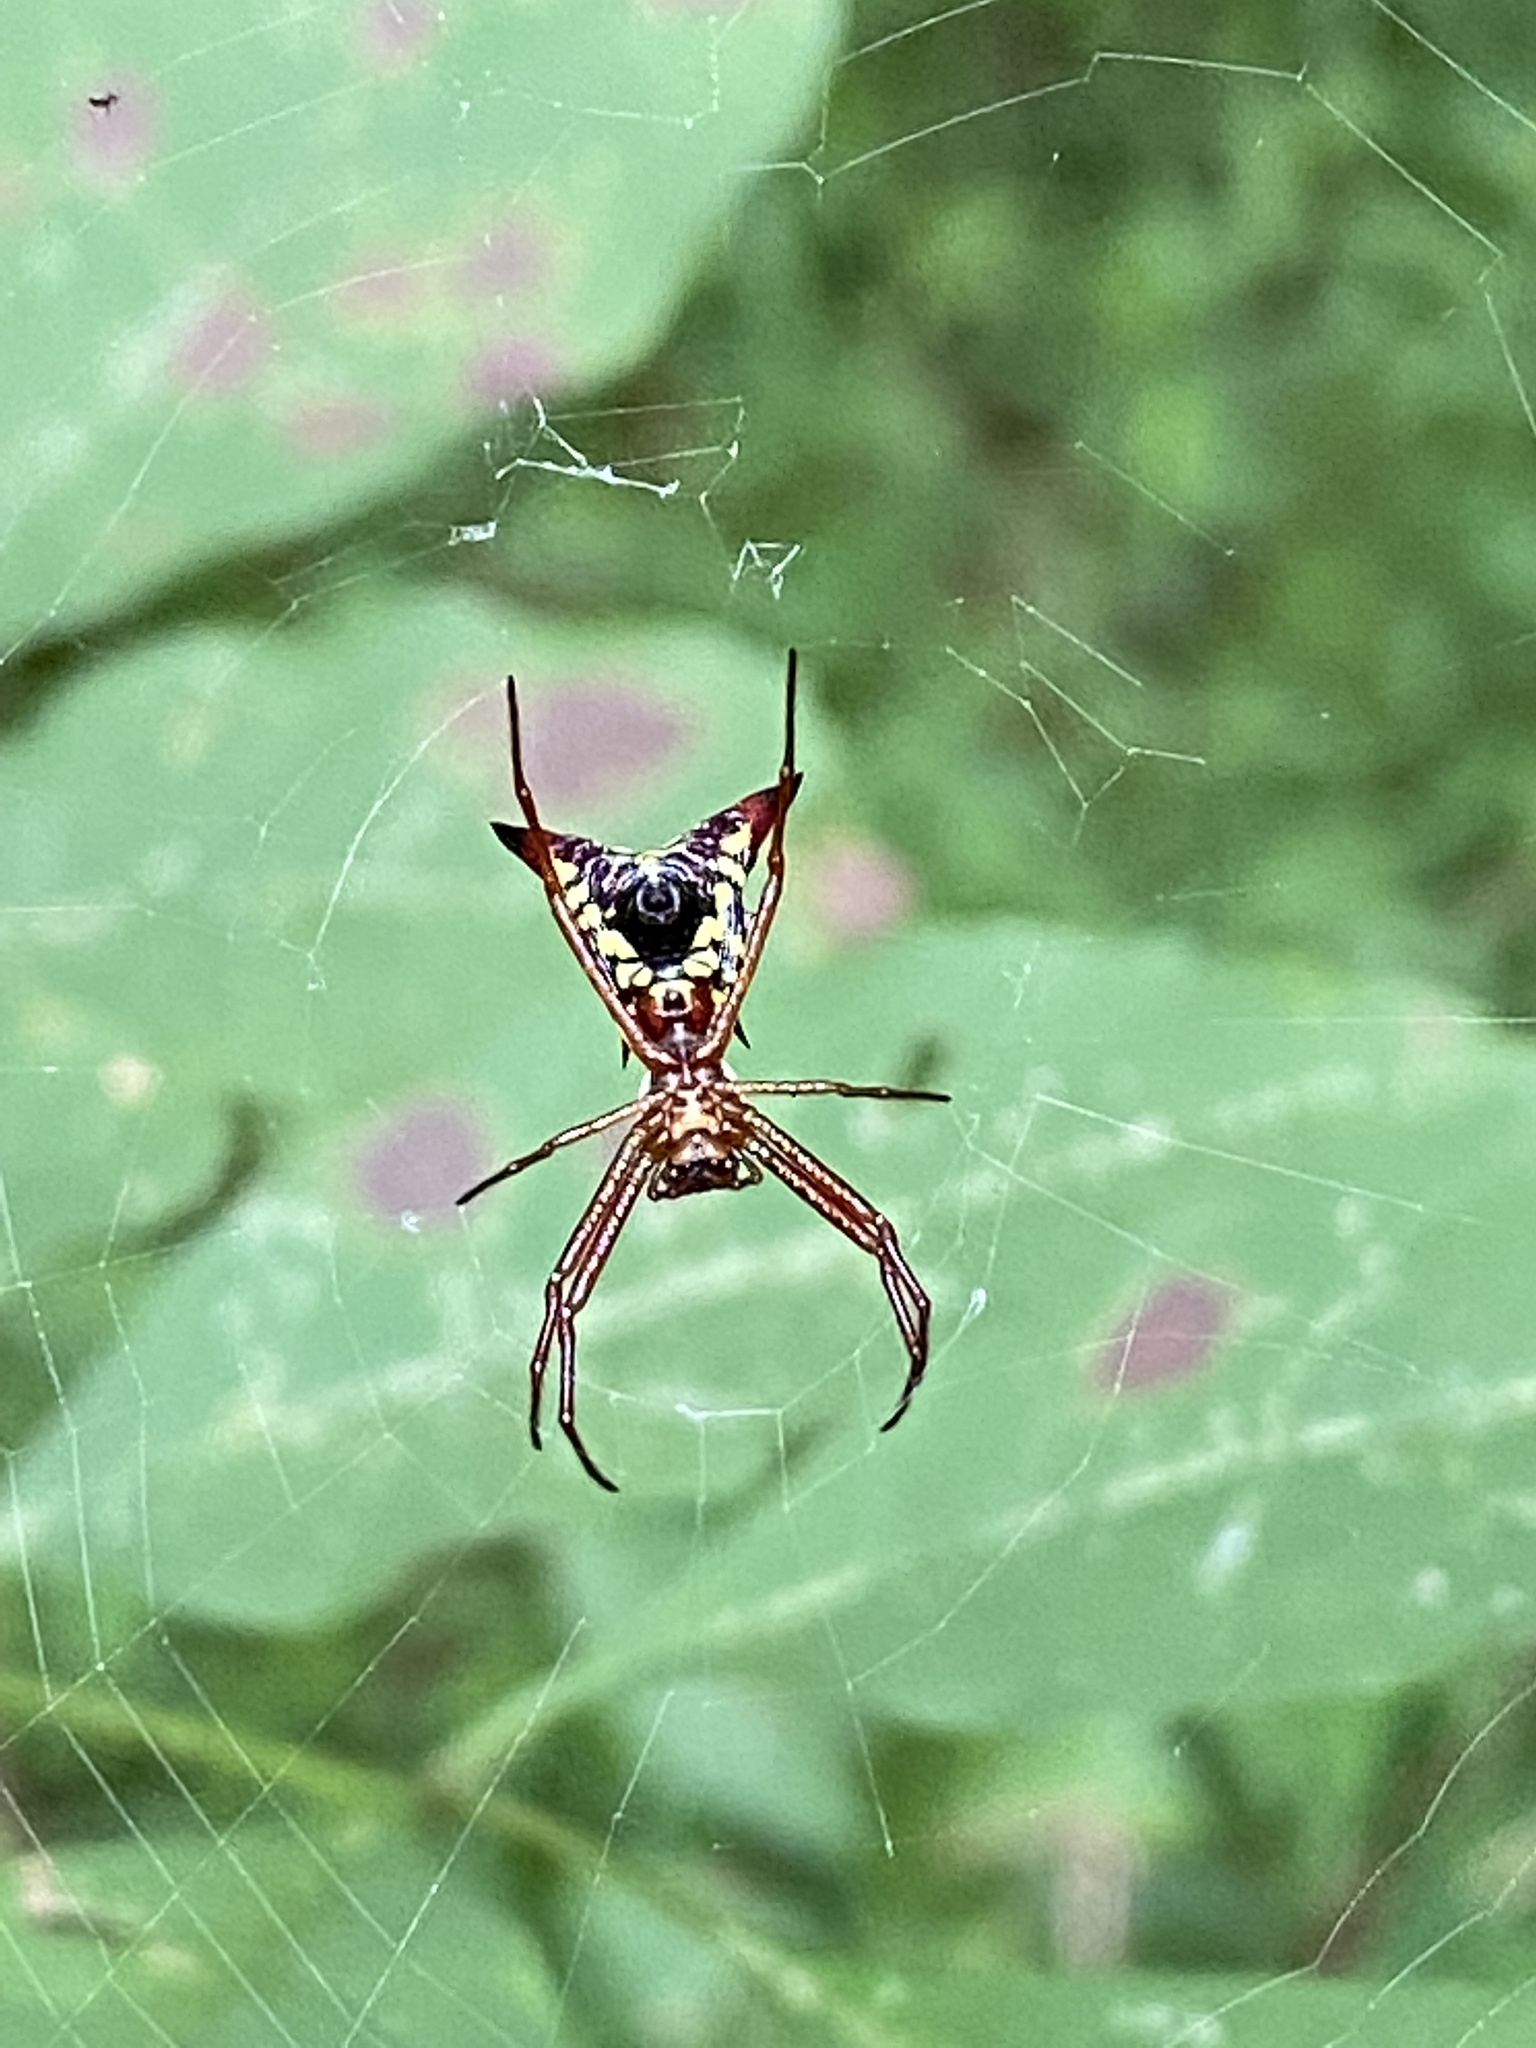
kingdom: Animalia
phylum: Arthropoda
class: Arachnida
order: Araneae
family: Araneidae
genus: Micrathena
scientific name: Micrathena sagittata
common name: Orb weavers
